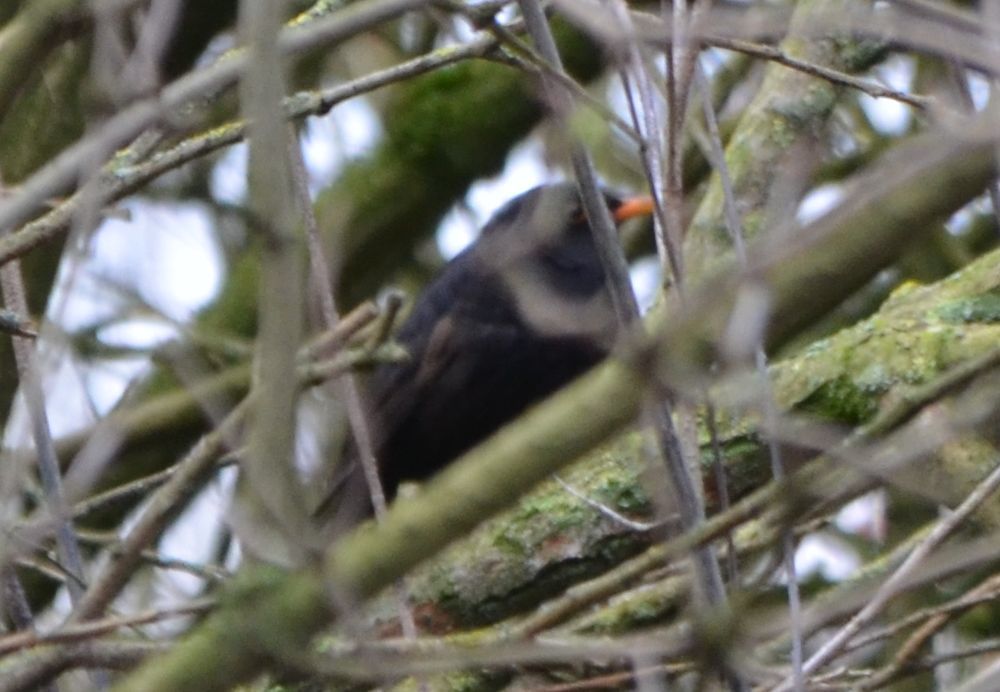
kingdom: Animalia
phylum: Chordata
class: Aves
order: Passeriformes
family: Turdidae
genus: Turdus
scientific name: Turdus merula
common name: Common blackbird
